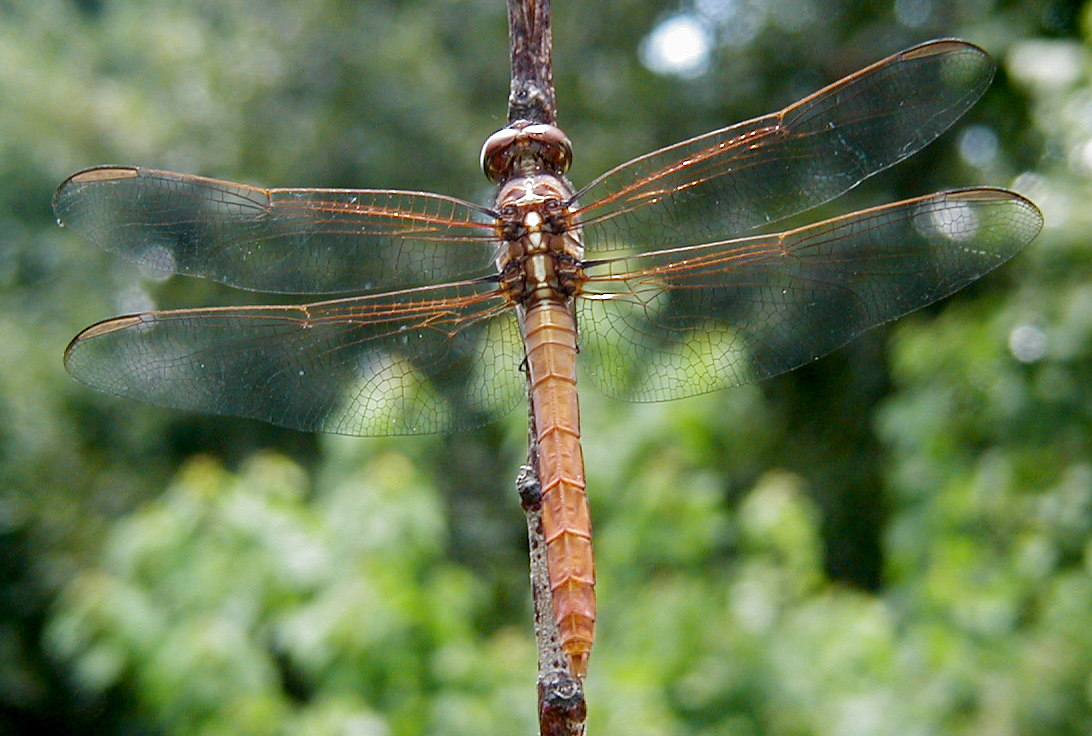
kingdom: Animalia
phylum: Arthropoda
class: Insecta
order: Odonata
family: Libellulidae
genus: Orthemis
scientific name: Orthemis ferruginea
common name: Roseate skimmer
